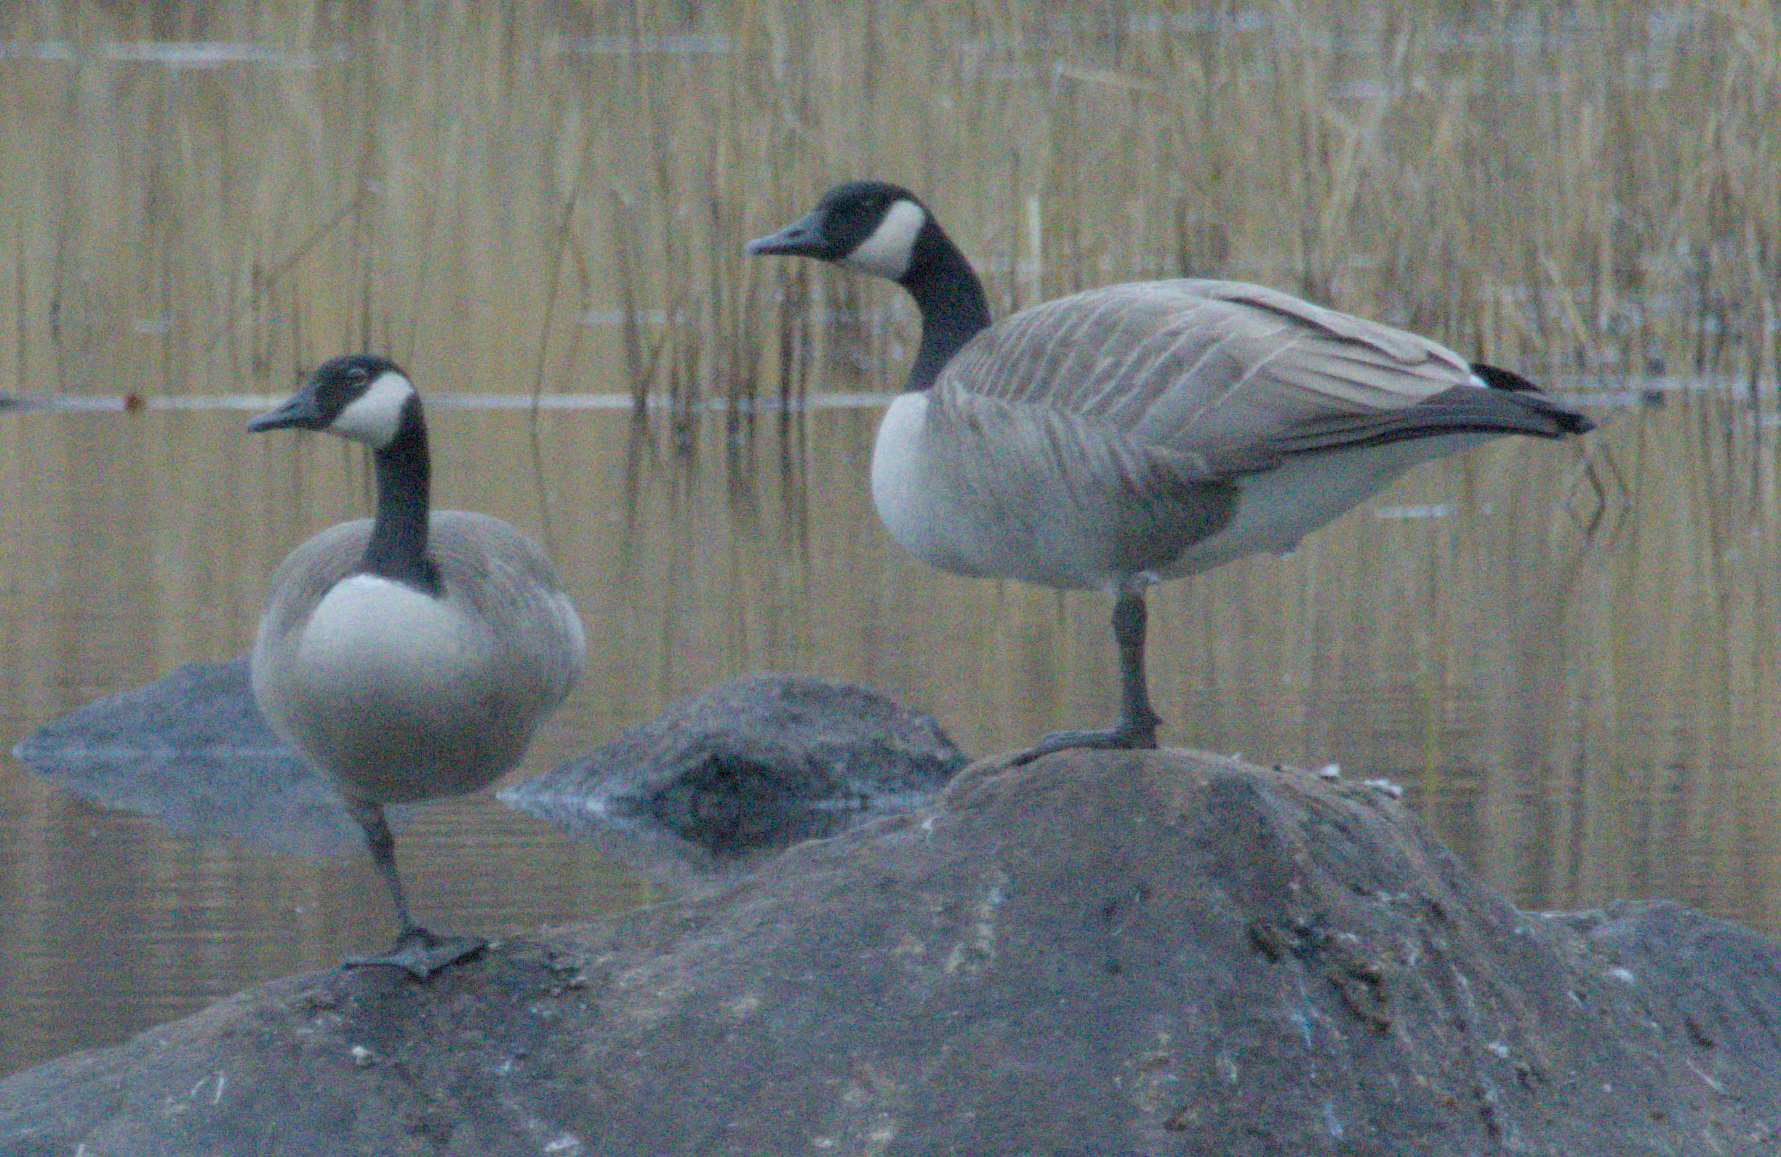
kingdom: Animalia
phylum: Chordata
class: Aves
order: Anseriformes
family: Anatidae
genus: Branta
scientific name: Branta canadensis
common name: Canada goose
